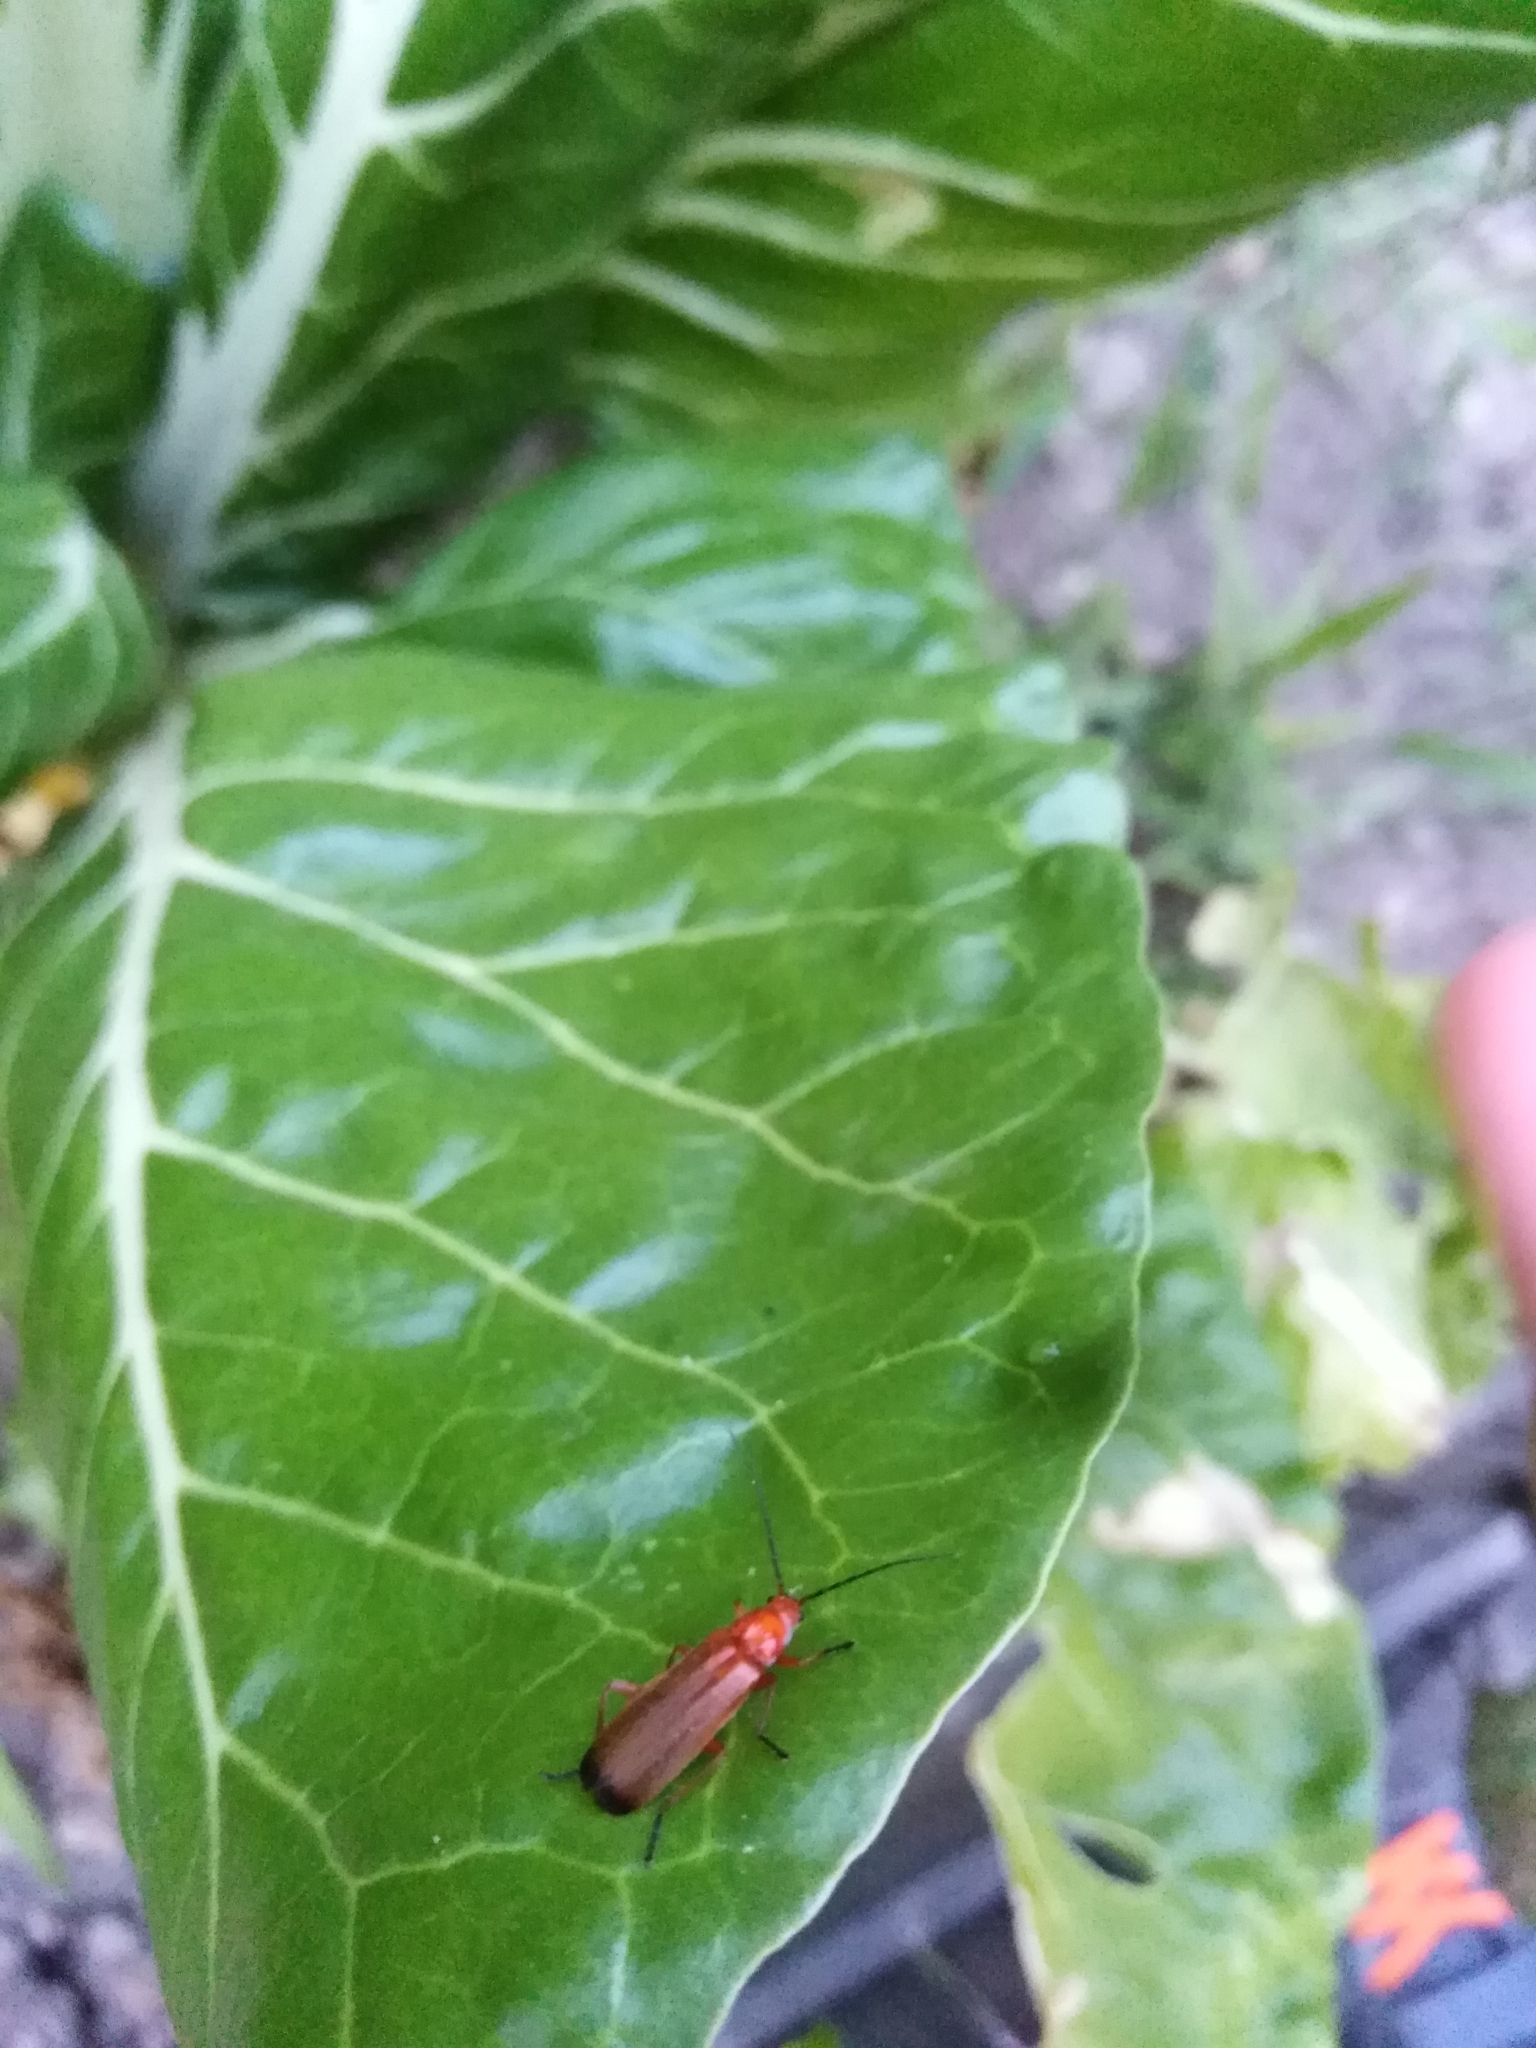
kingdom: Animalia
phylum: Arthropoda
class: Insecta
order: Coleoptera
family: Cantharidae
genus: Rhagonycha
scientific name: Rhagonycha fulva
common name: Common red soldier beetle
